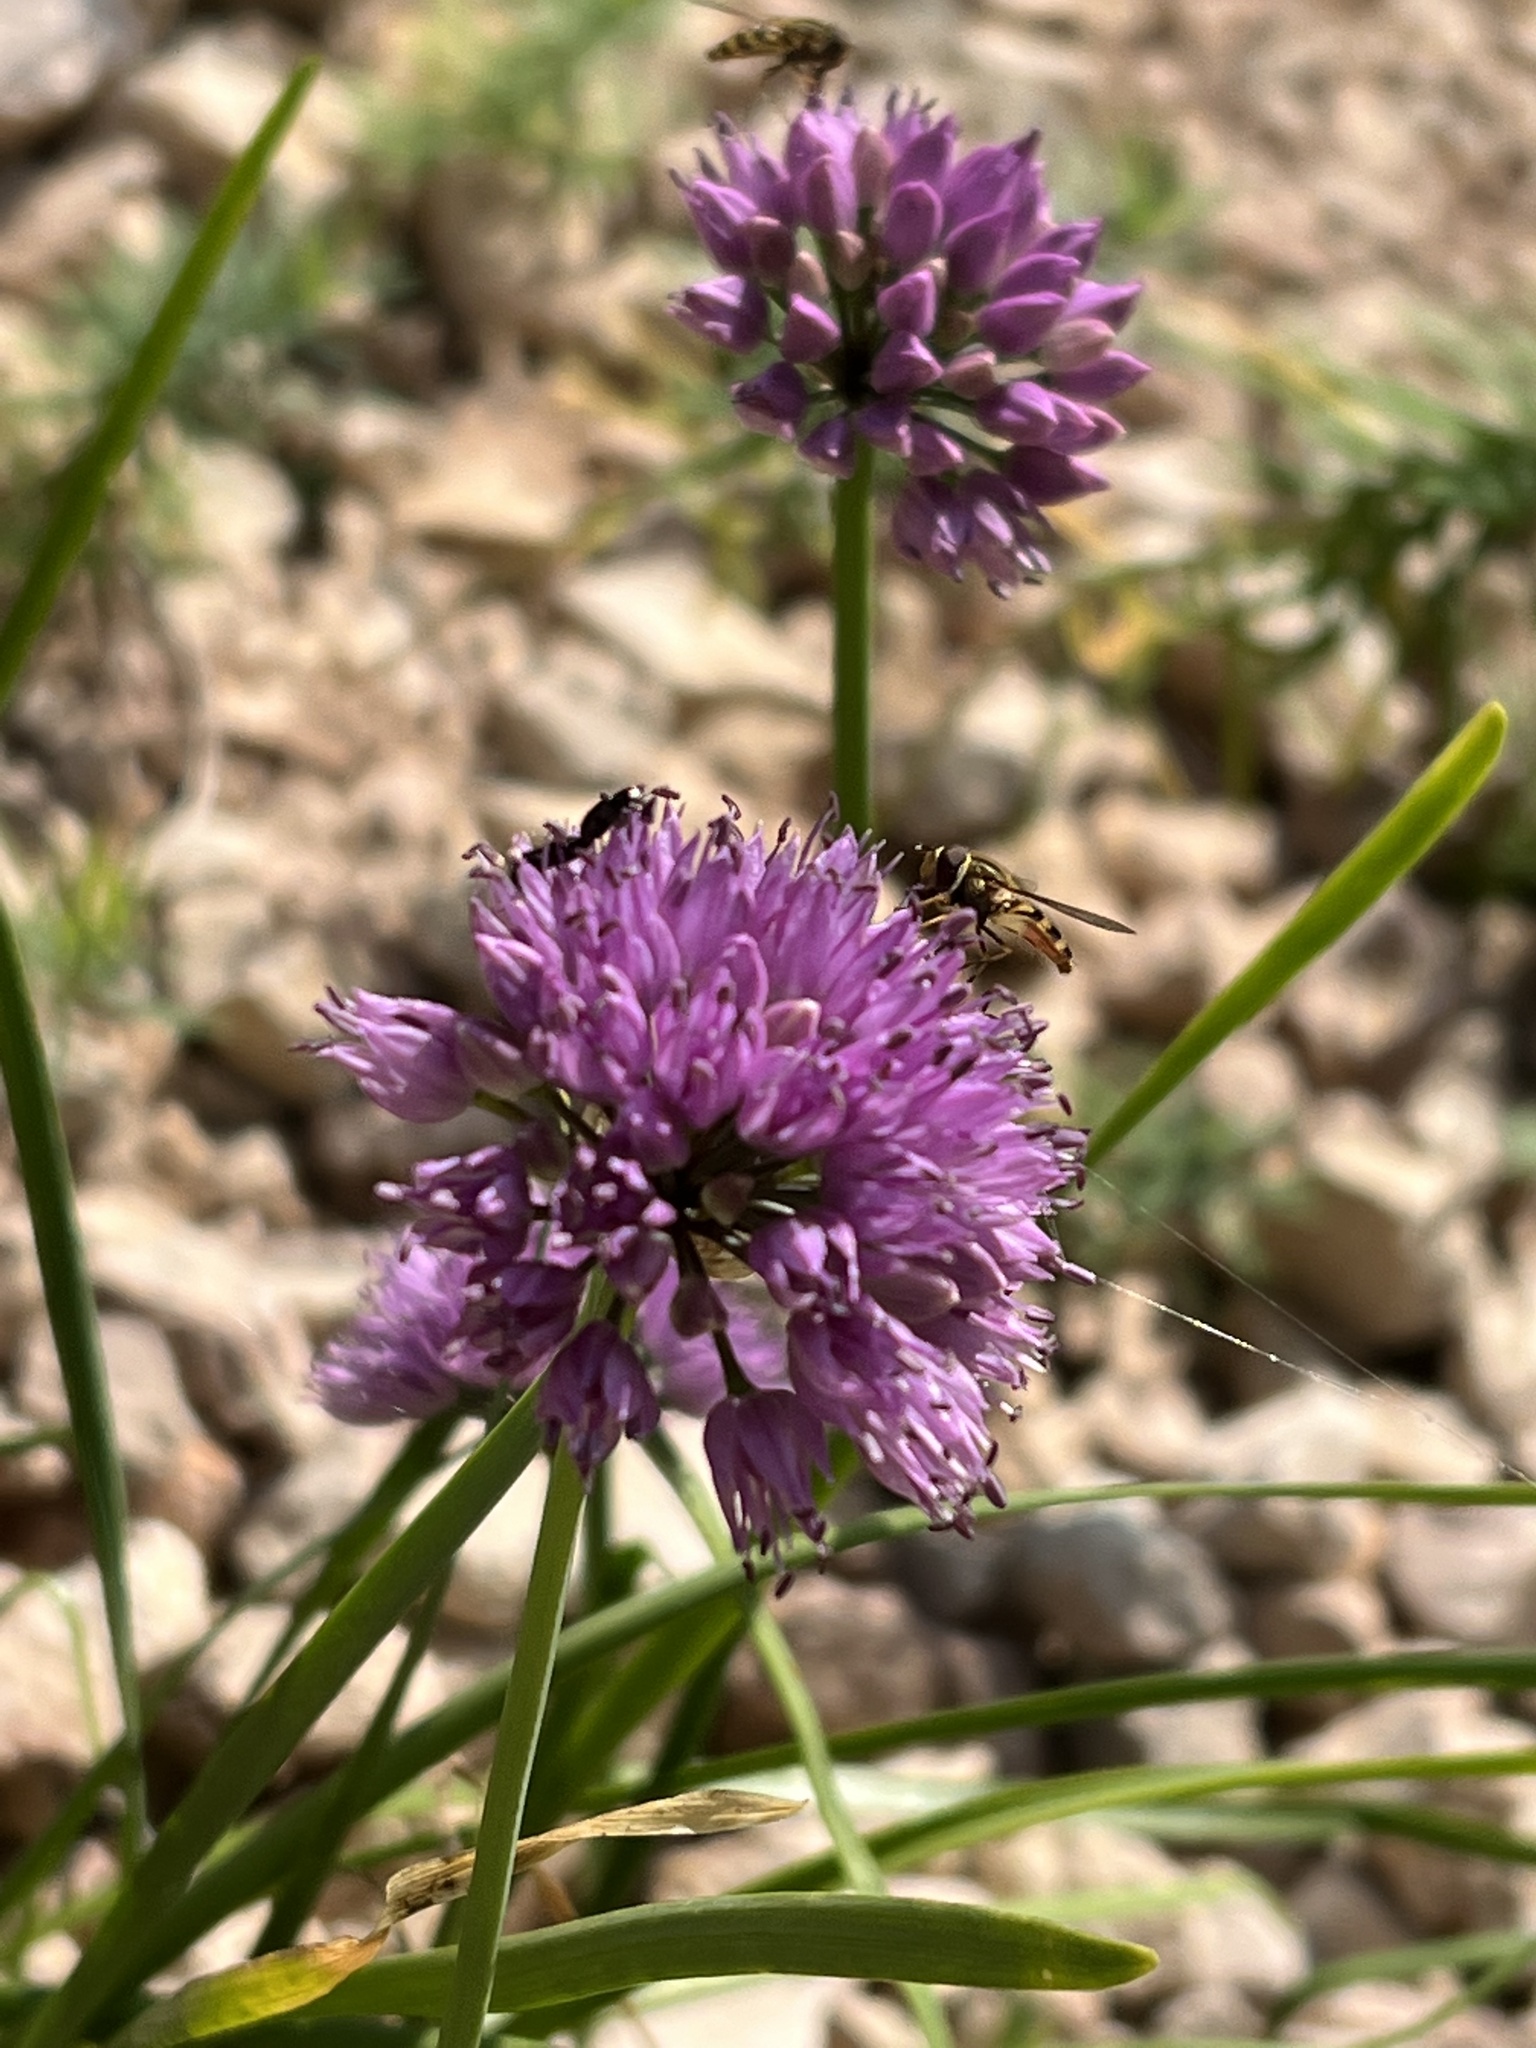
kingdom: Plantae
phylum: Tracheophyta
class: Liliopsida
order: Asparagales
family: Amaryllidaceae
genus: Allium
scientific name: Allium lusitanicum
